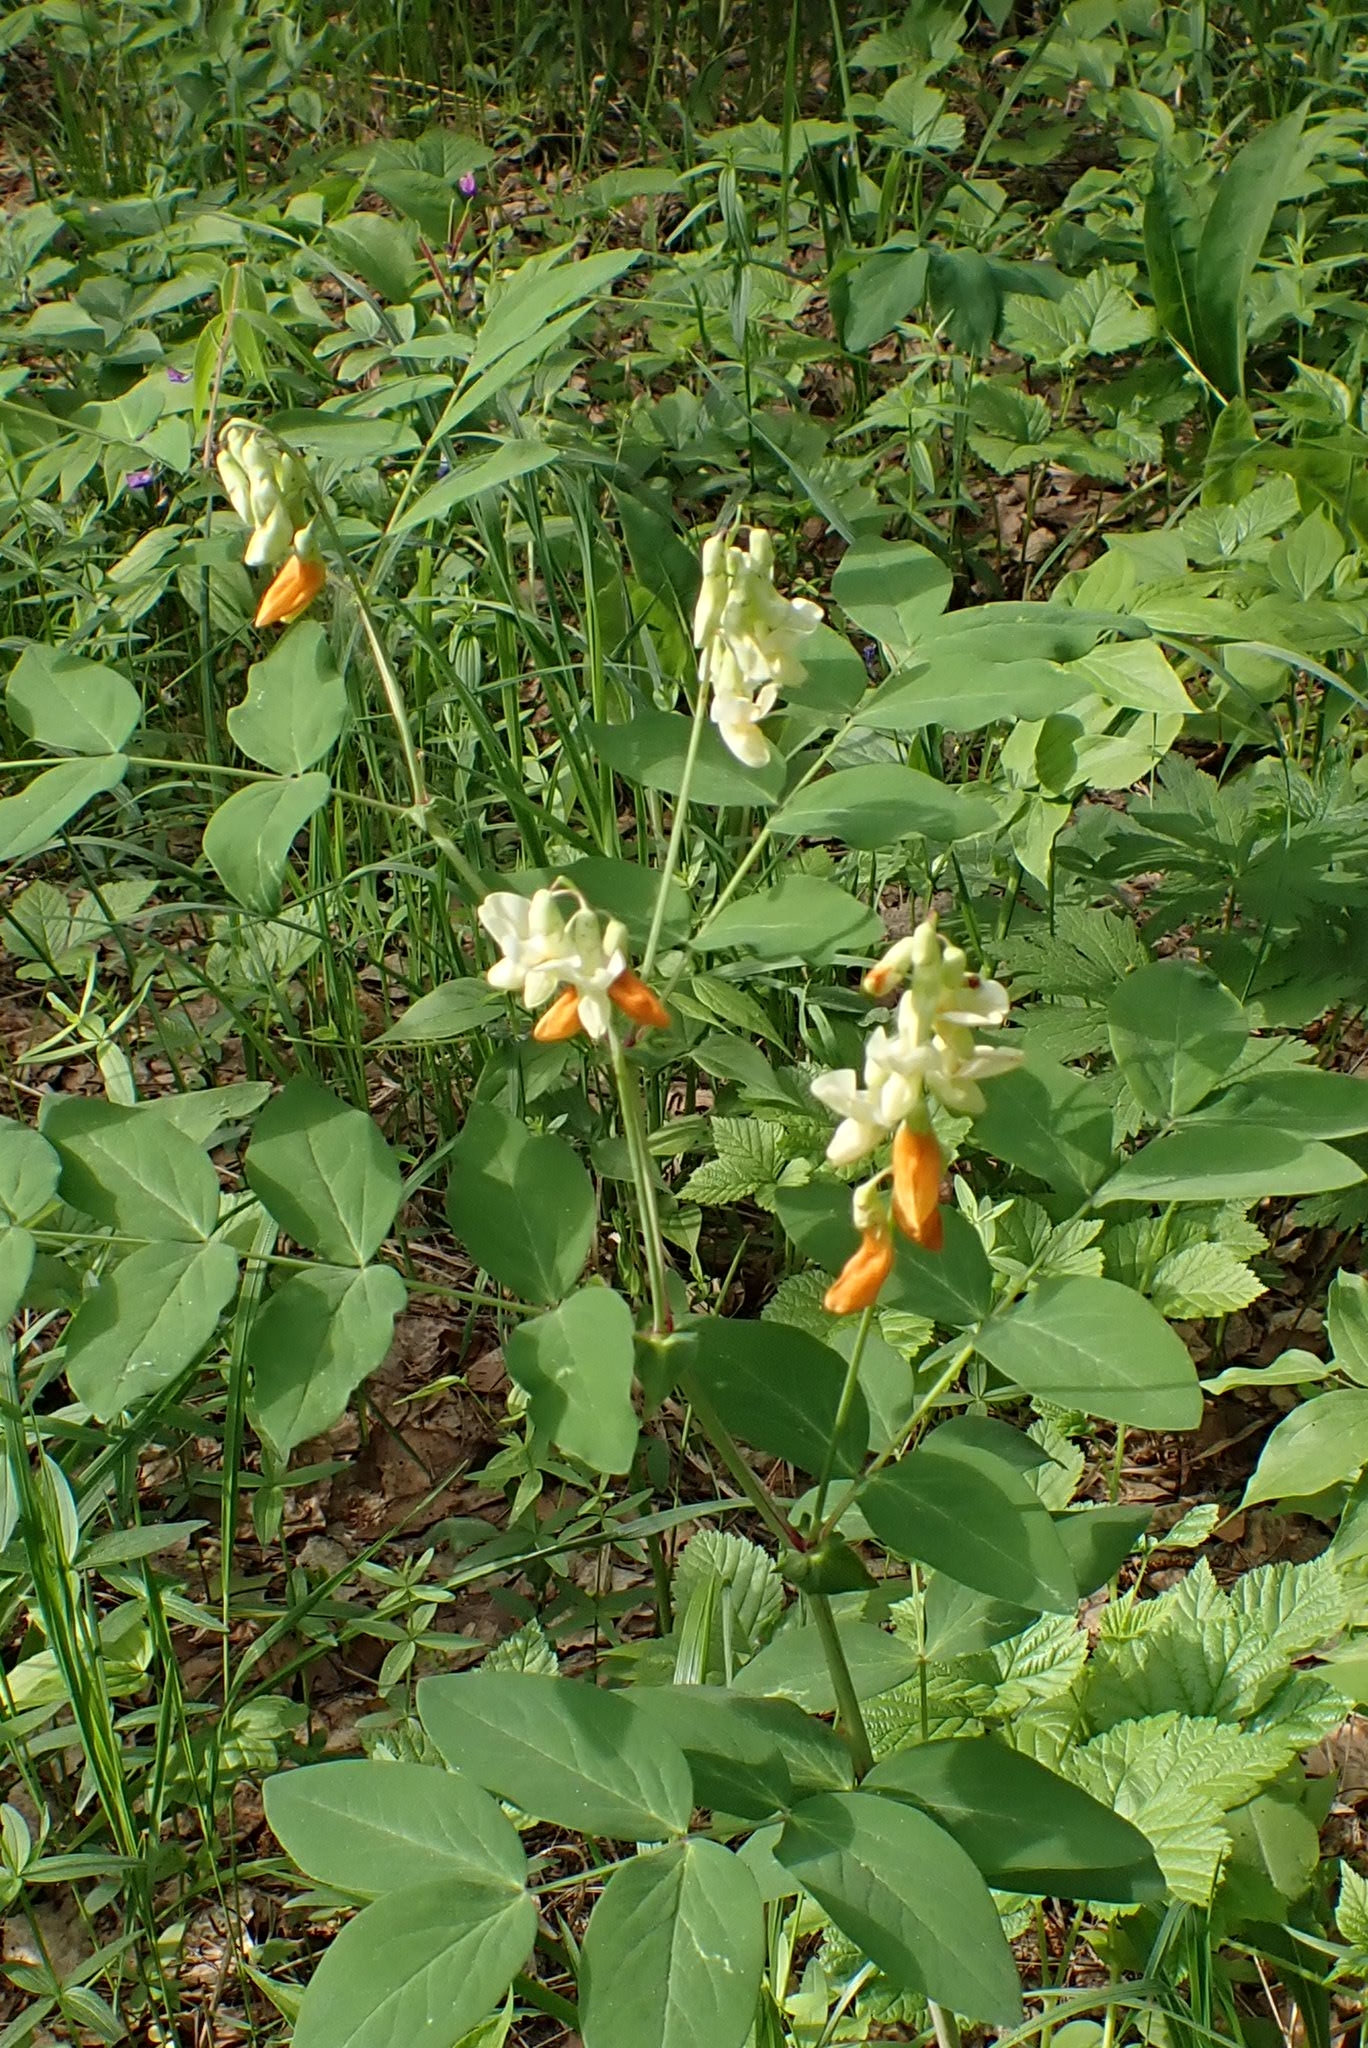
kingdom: Plantae
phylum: Tracheophyta
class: Magnoliopsida
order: Fabales
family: Fabaceae
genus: Lathyrus
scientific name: Lathyrus gmelinii
